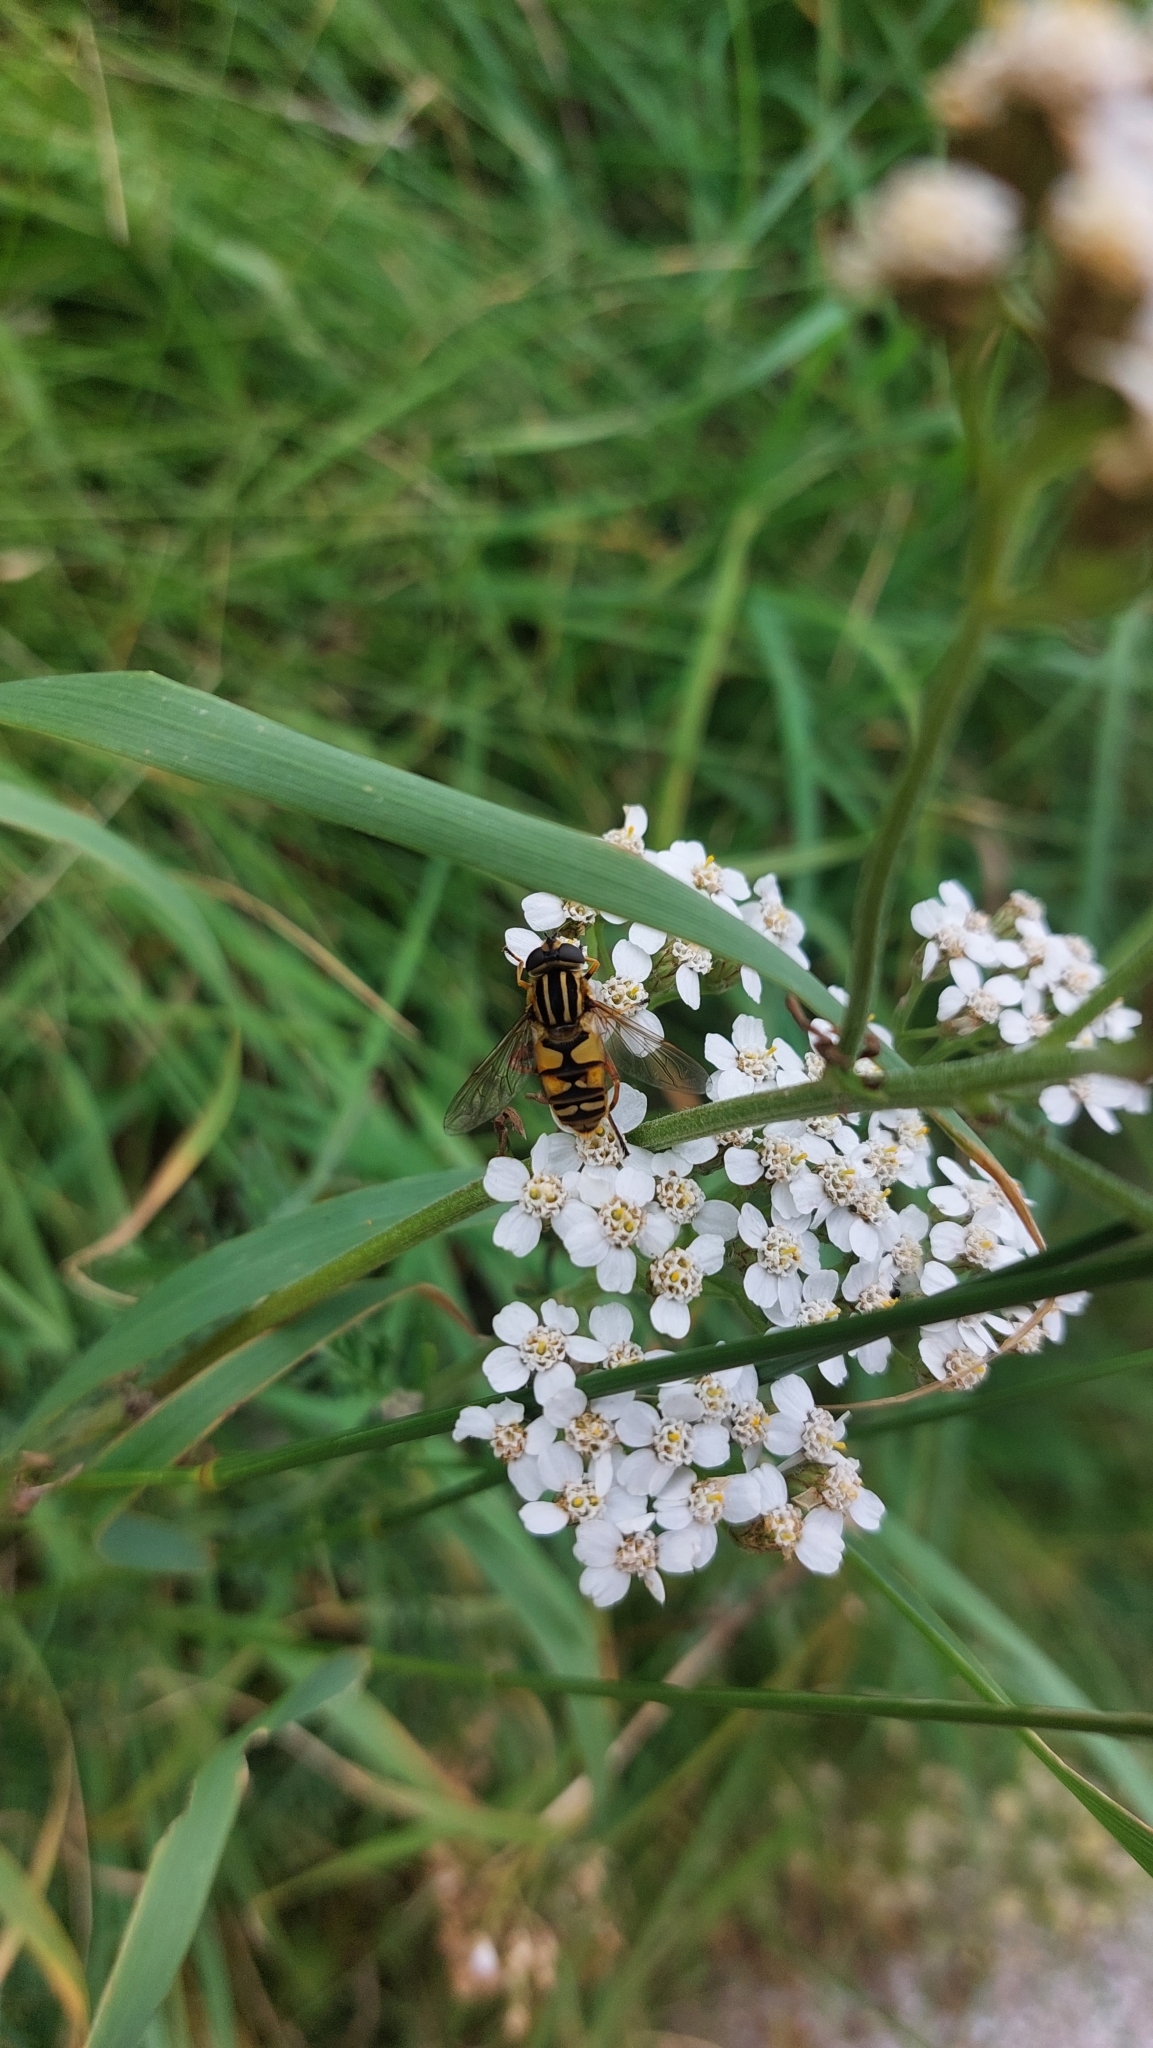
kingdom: Animalia
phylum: Arthropoda
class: Insecta
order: Diptera
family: Syrphidae
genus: Helophilus
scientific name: Helophilus pendulus
